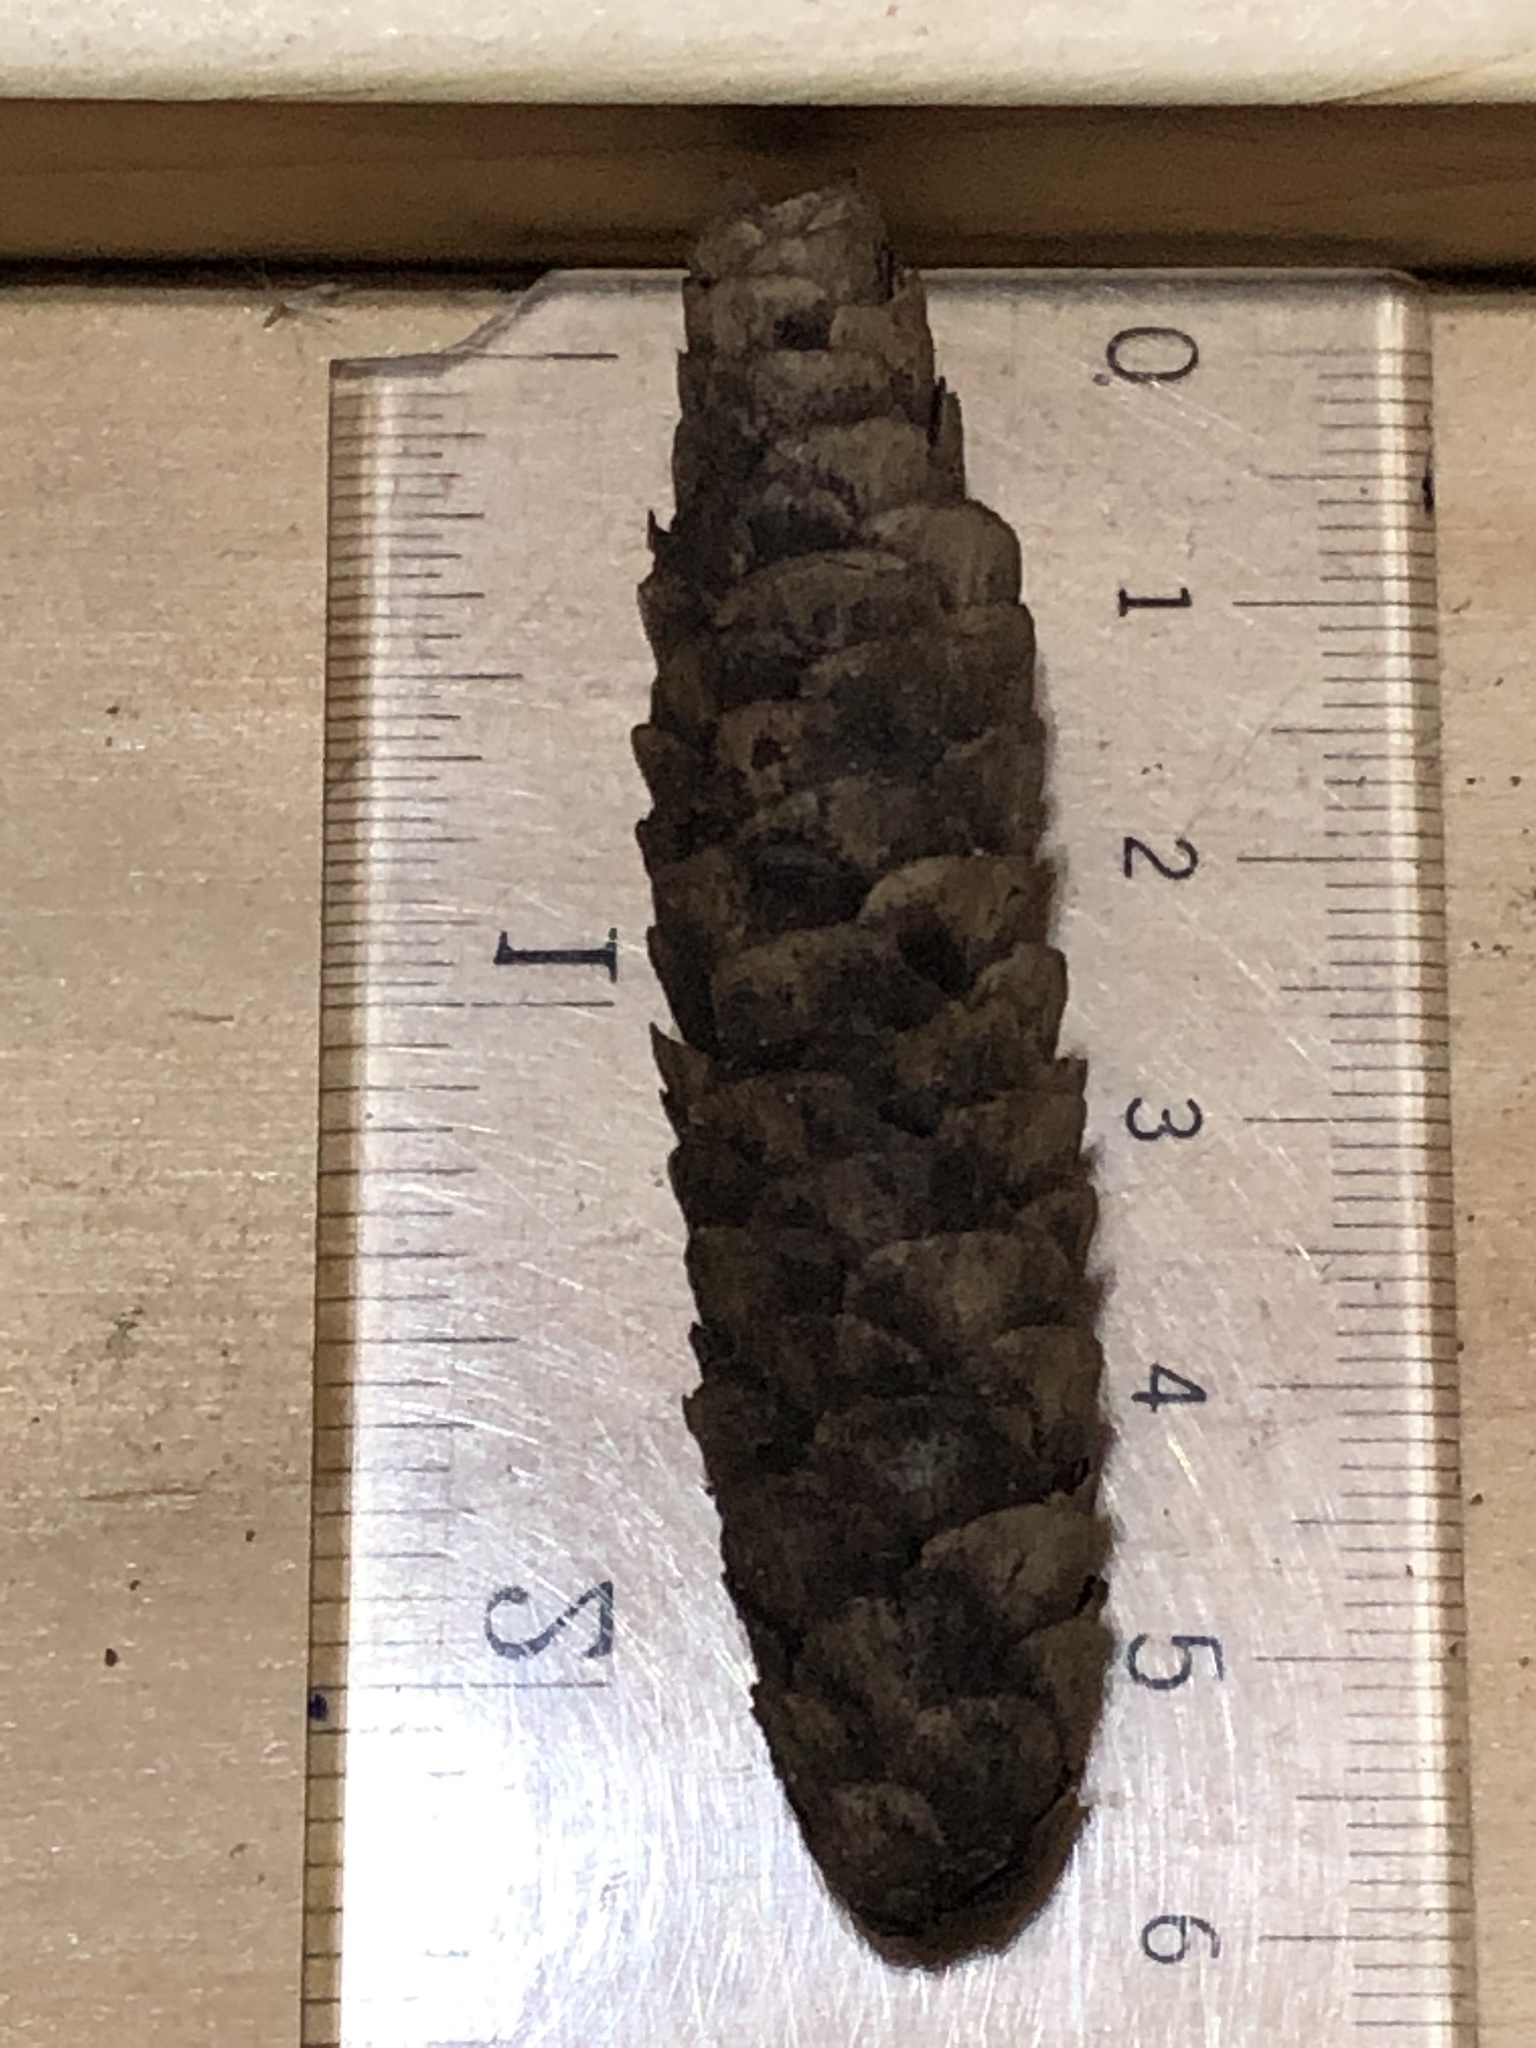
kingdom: Plantae
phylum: Tracheophyta
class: Pinopsida
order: Pinales
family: Pinaceae
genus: Picea
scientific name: Picea glauca
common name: White spruce
